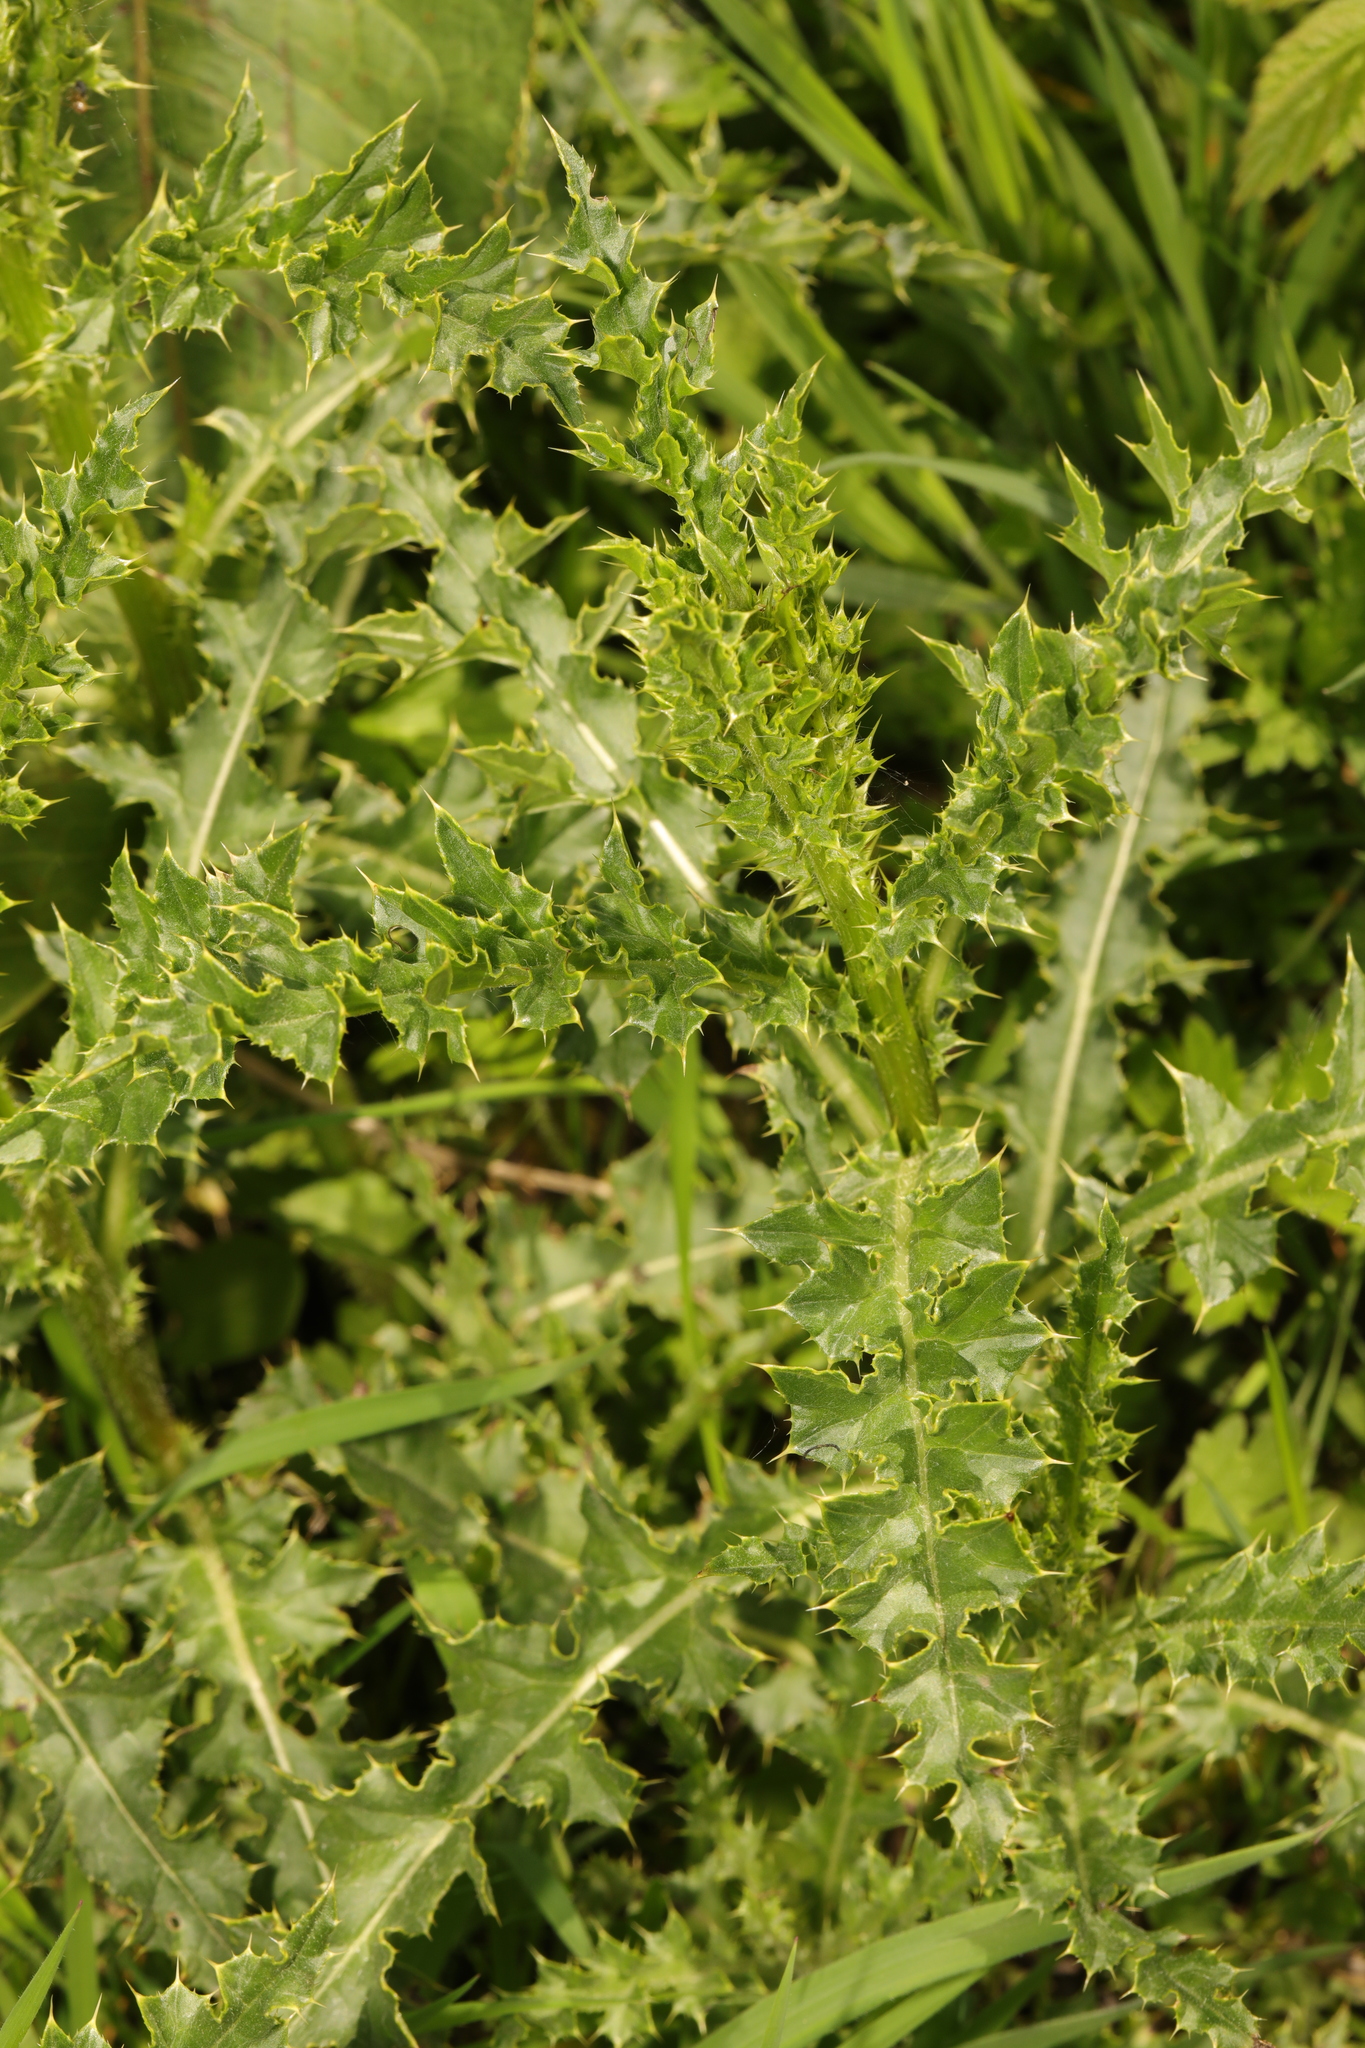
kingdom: Plantae
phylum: Tracheophyta
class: Magnoliopsida
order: Asterales
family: Asteraceae
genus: Cirsium
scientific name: Cirsium arvense
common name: Creeping thistle
